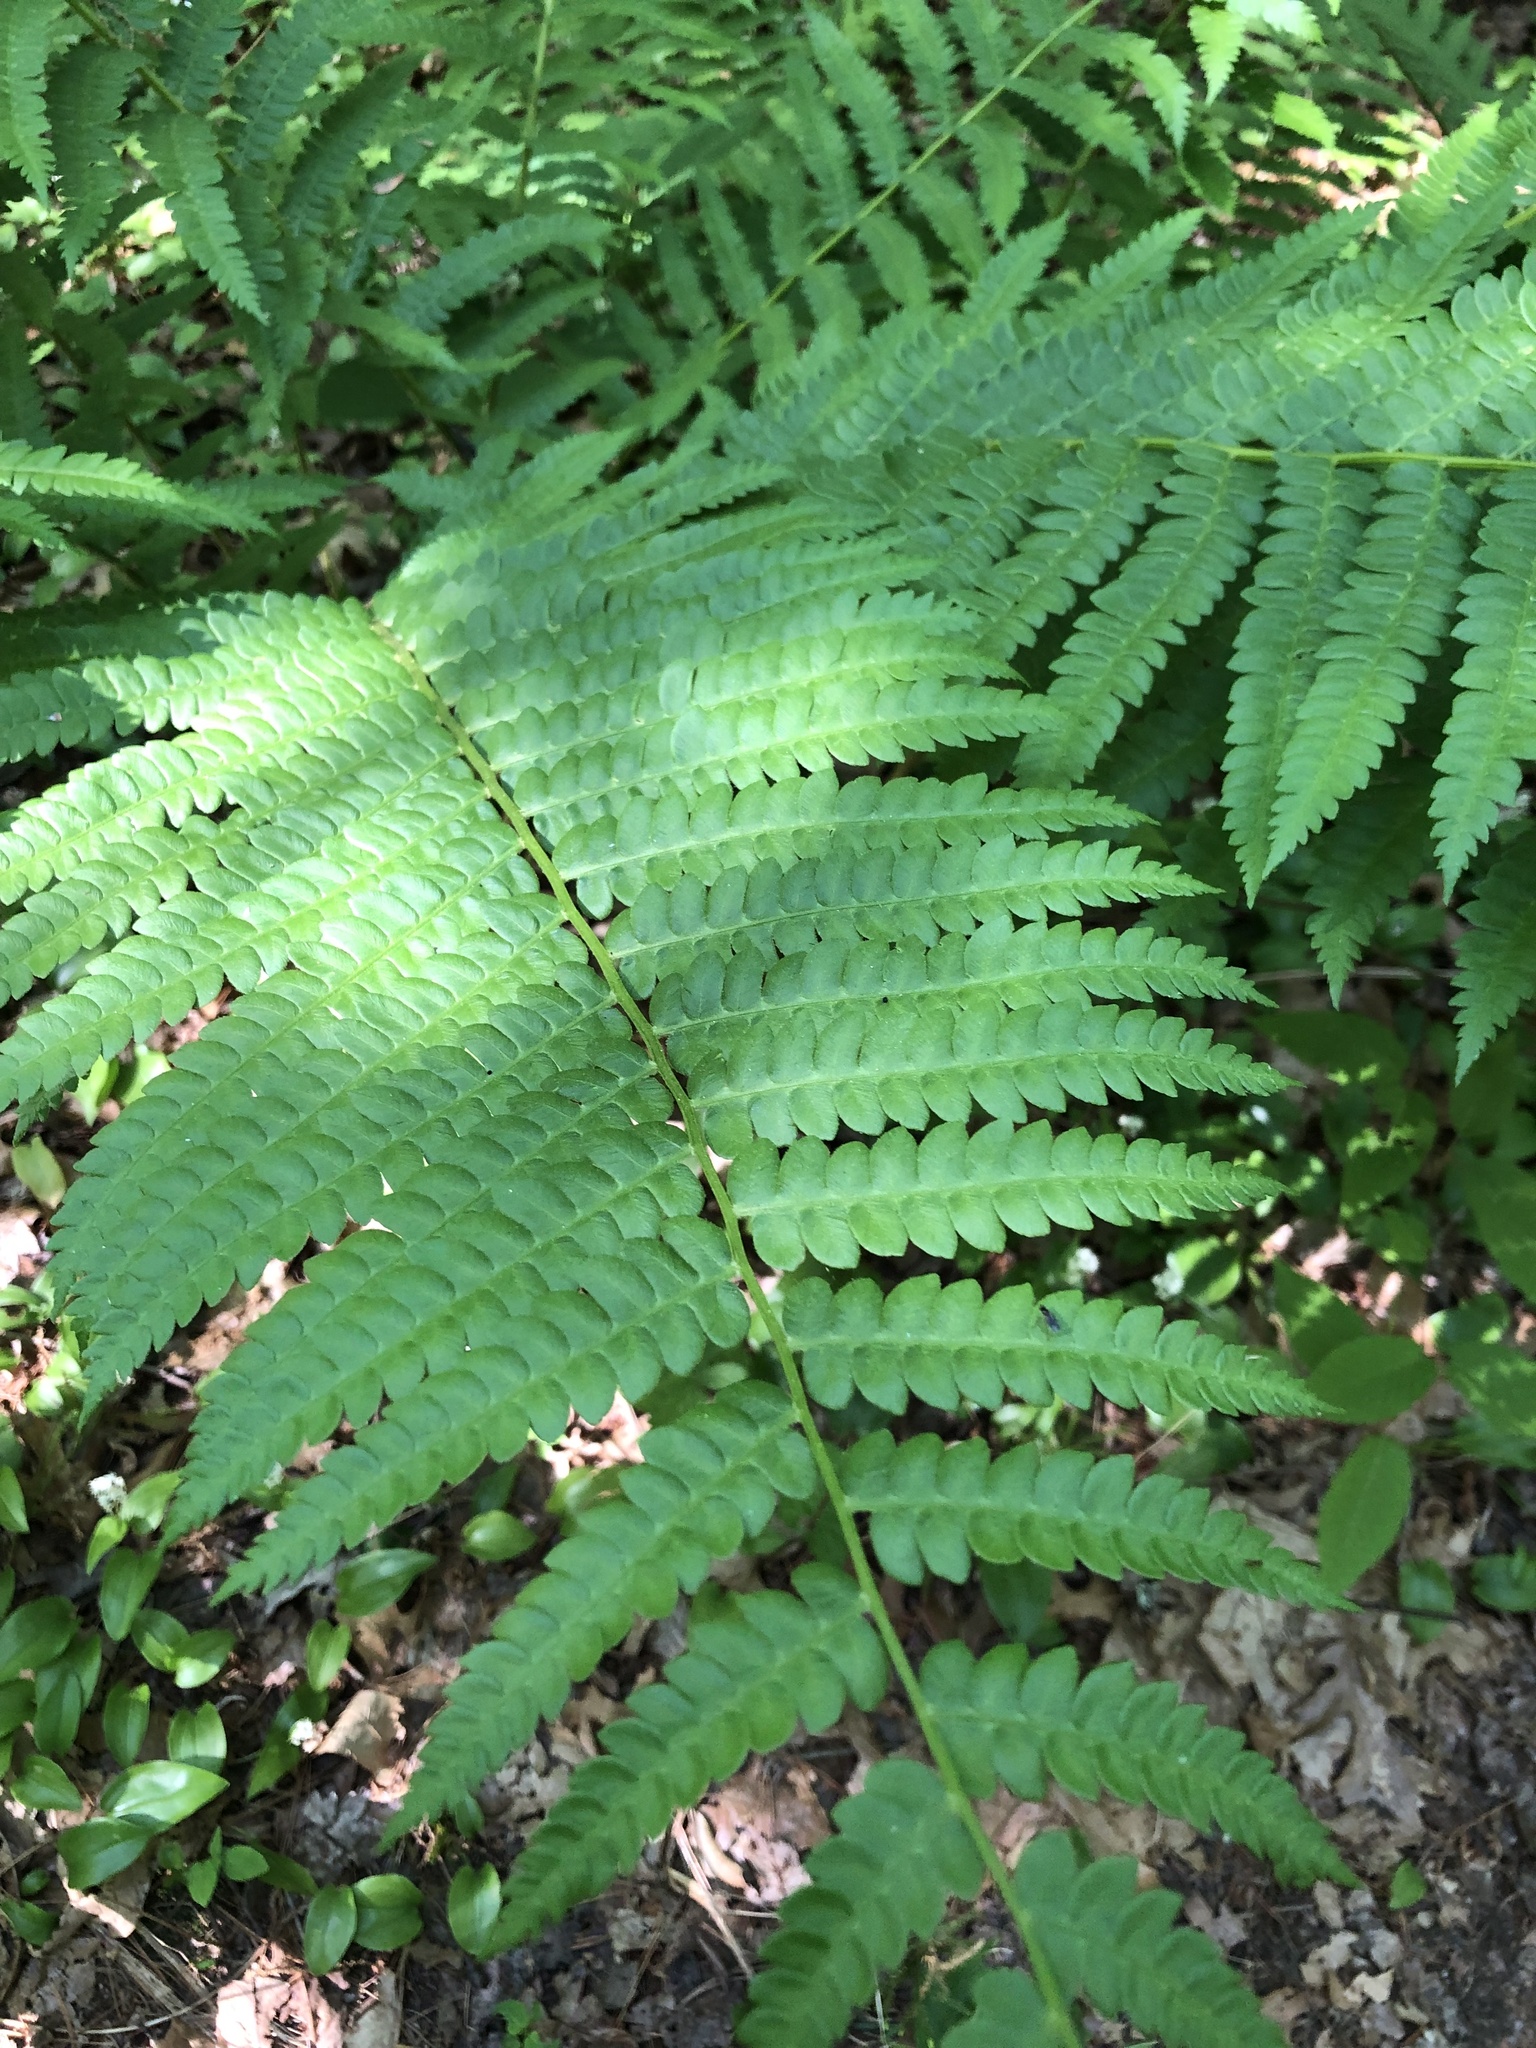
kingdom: Plantae
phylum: Tracheophyta
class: Polypodiopsida
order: Osmundales
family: Osmundaceae
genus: Osmundastrum
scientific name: Osmundastrum cinnamomeum
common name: Cinnamon fern
